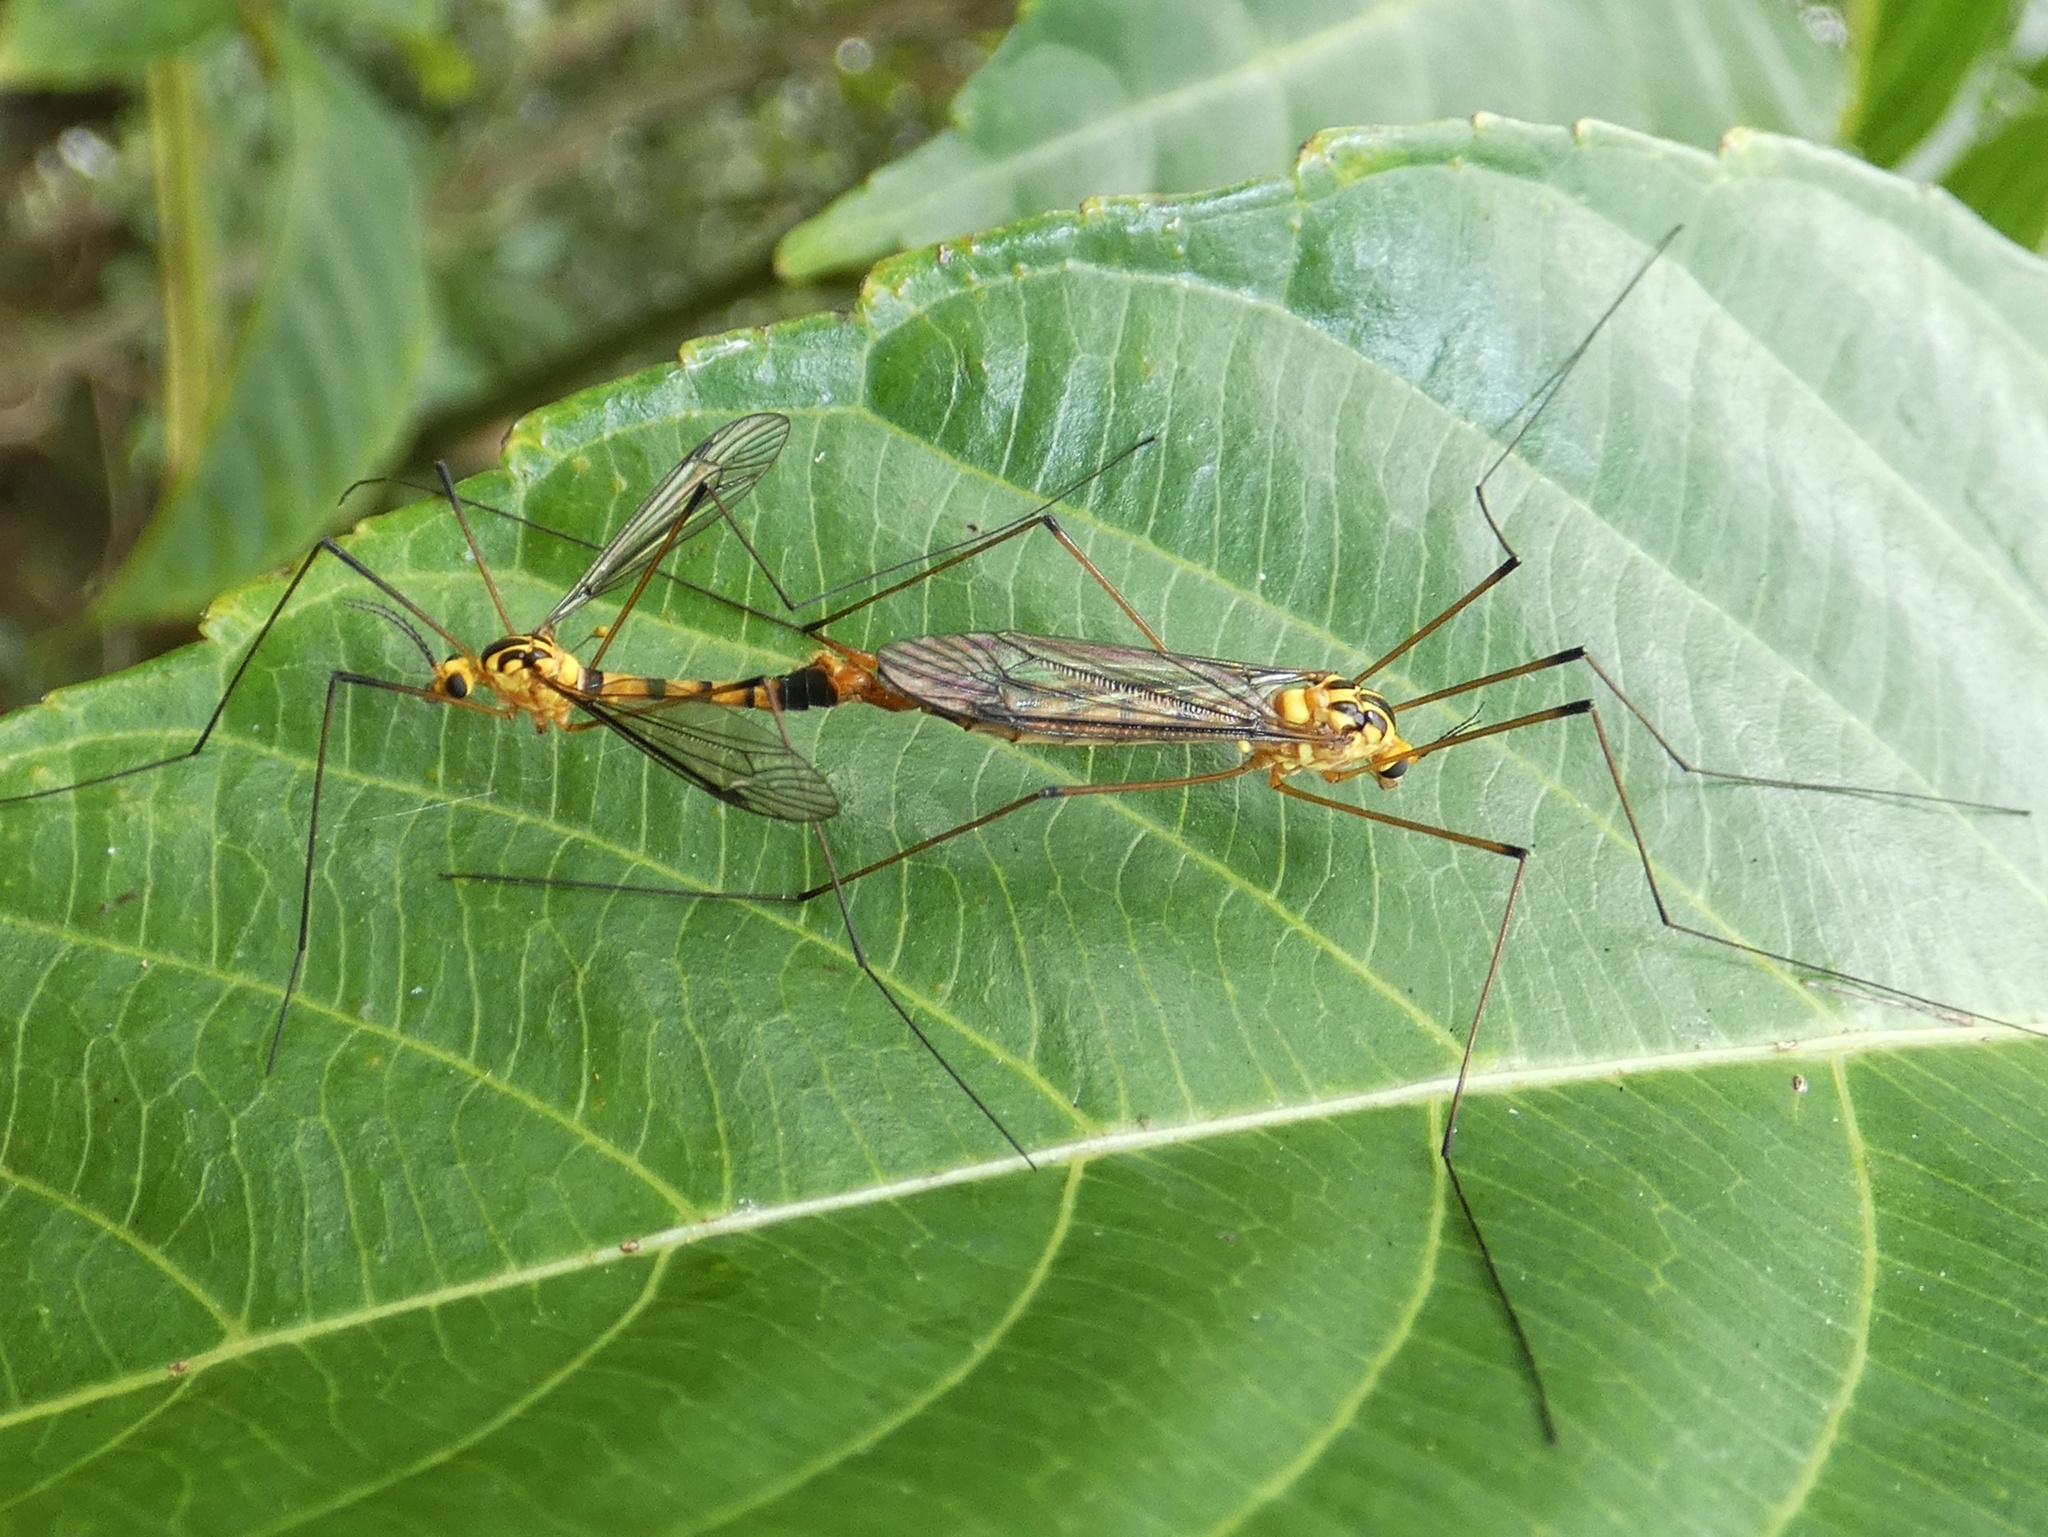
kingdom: Animalia
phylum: Arthropoda
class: Insecta
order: Diptera
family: Tipulidae
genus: Nephrotoma
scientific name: Nephrotoma australasiae
